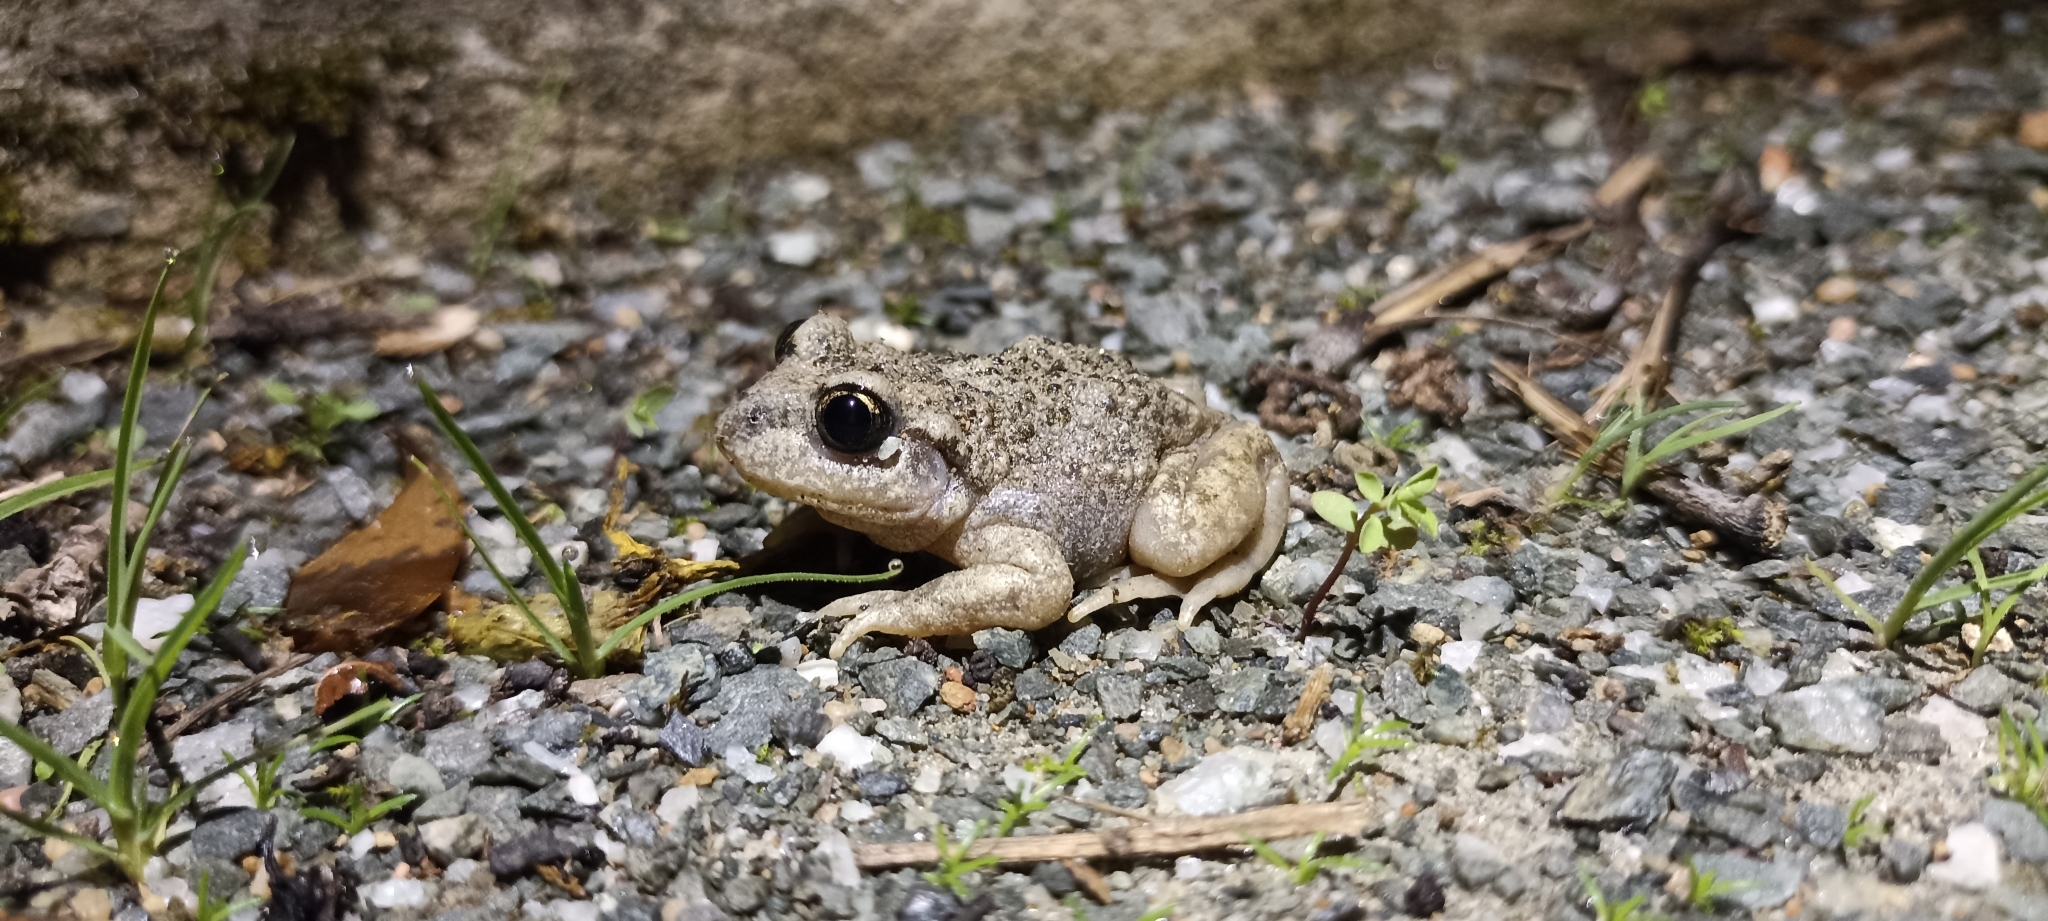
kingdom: Animalia
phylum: Chordata
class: Amphibia
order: Anura
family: Alytidae
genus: Alytes
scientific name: Alytes obstetricans
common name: Midwife toad
